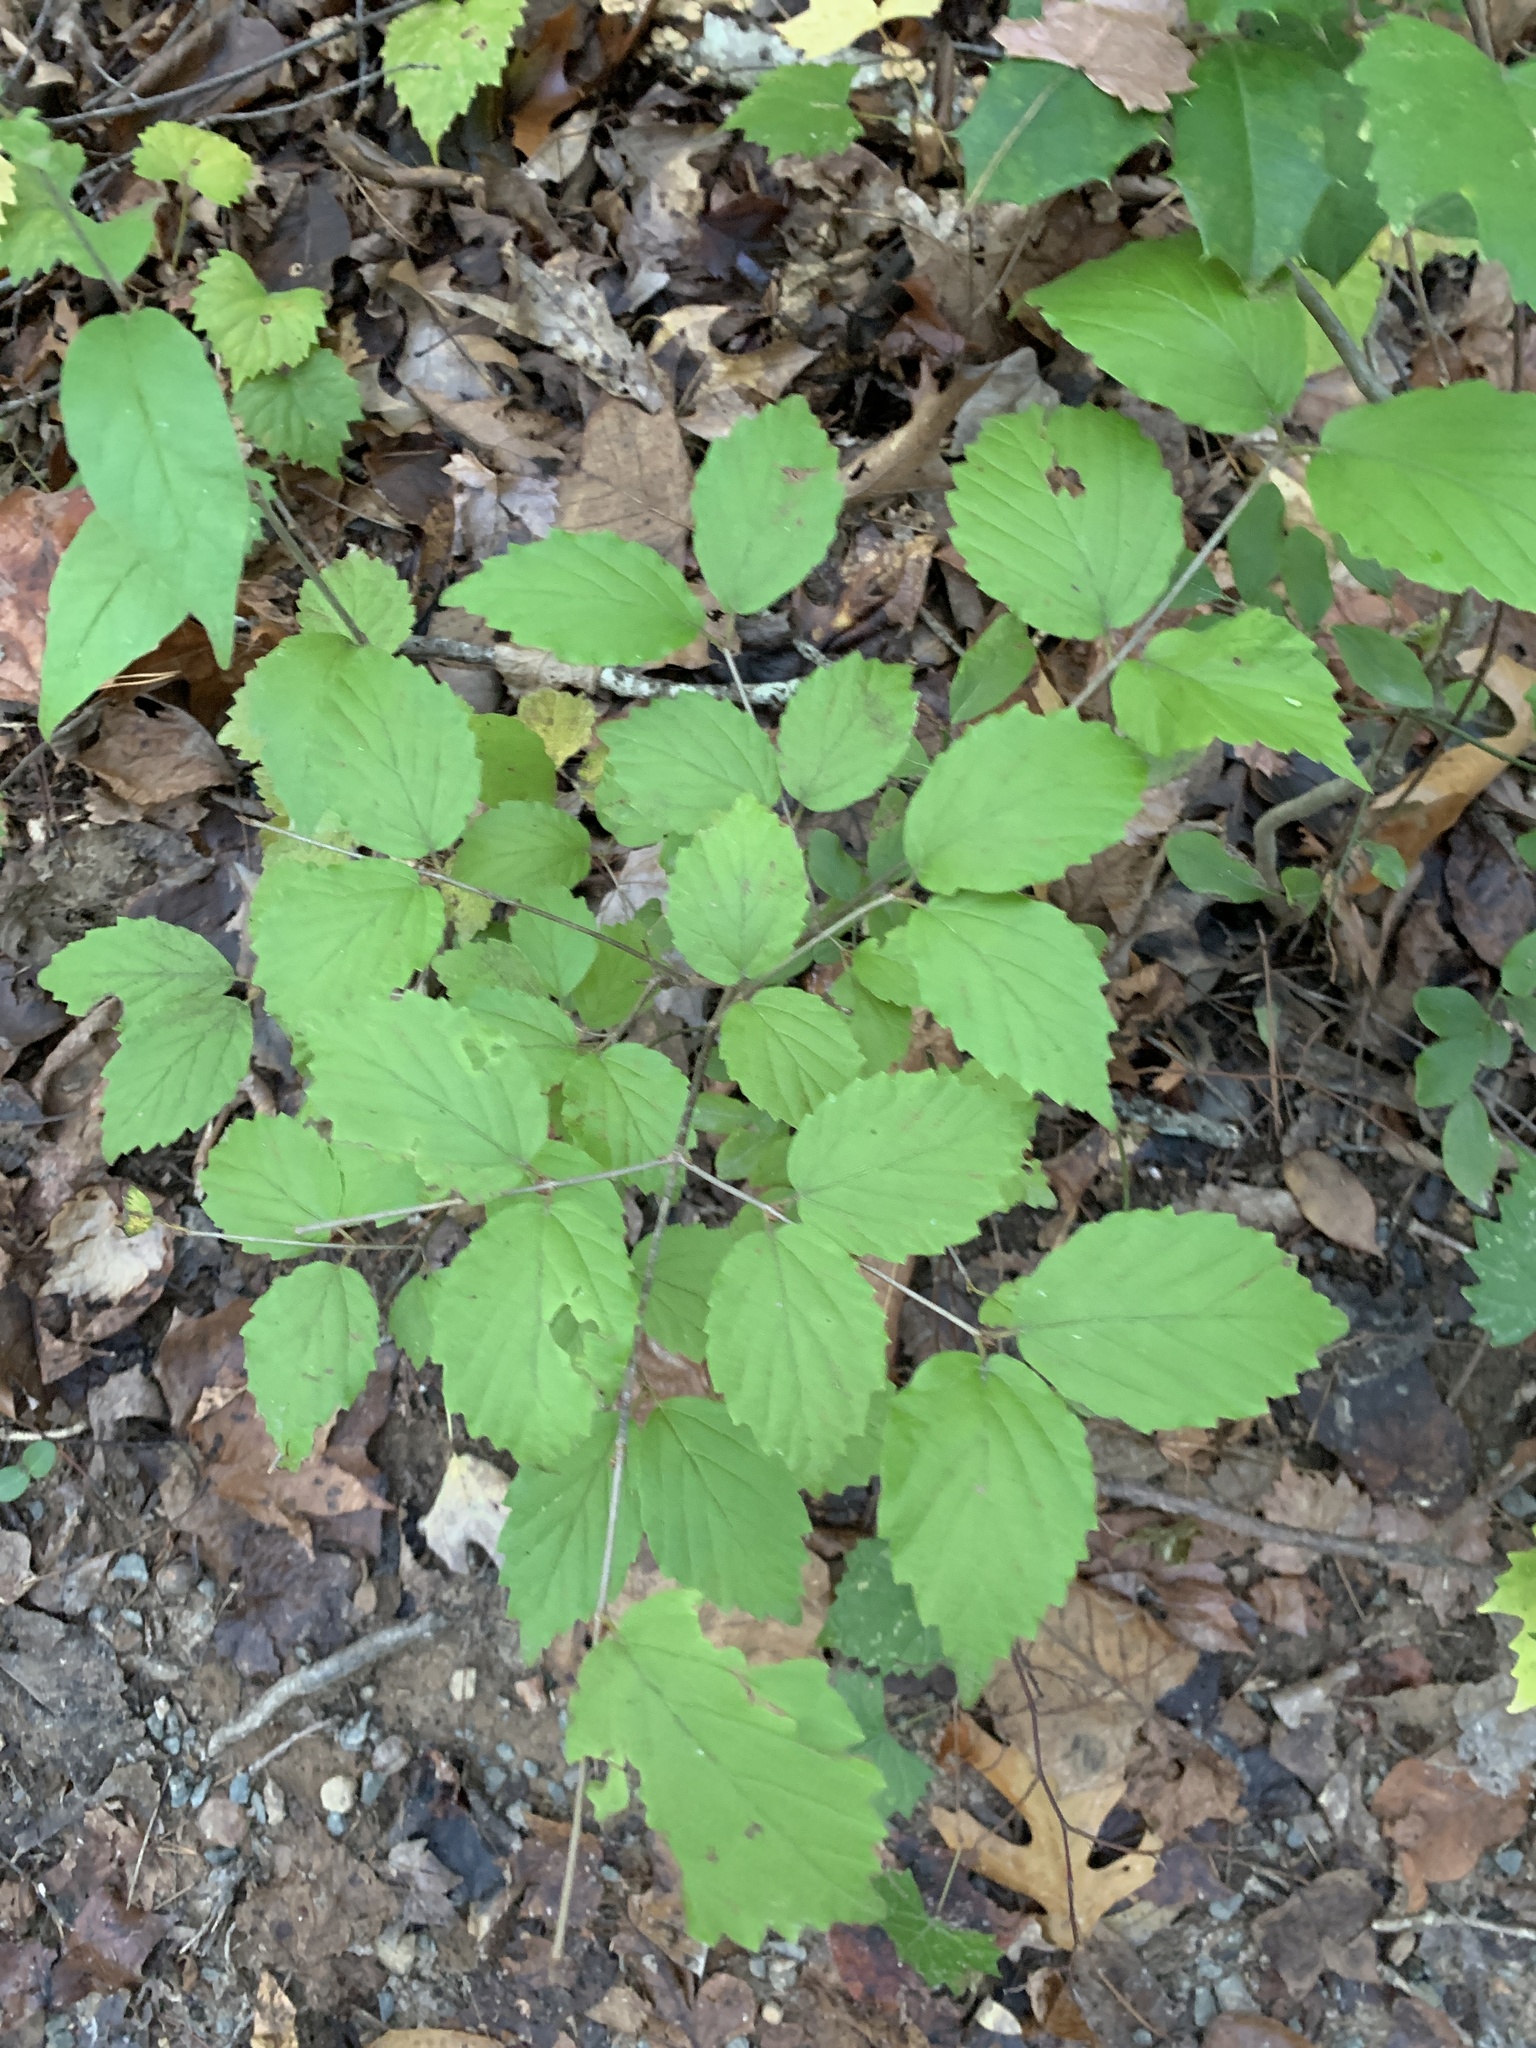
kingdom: Plantae
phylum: Tracheophyta
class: Magnoliopsida
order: Dipsacales
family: Viburnaceae
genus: Viburnum
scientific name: Viburnum rafinesqueanum
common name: Downy arrow-wood
